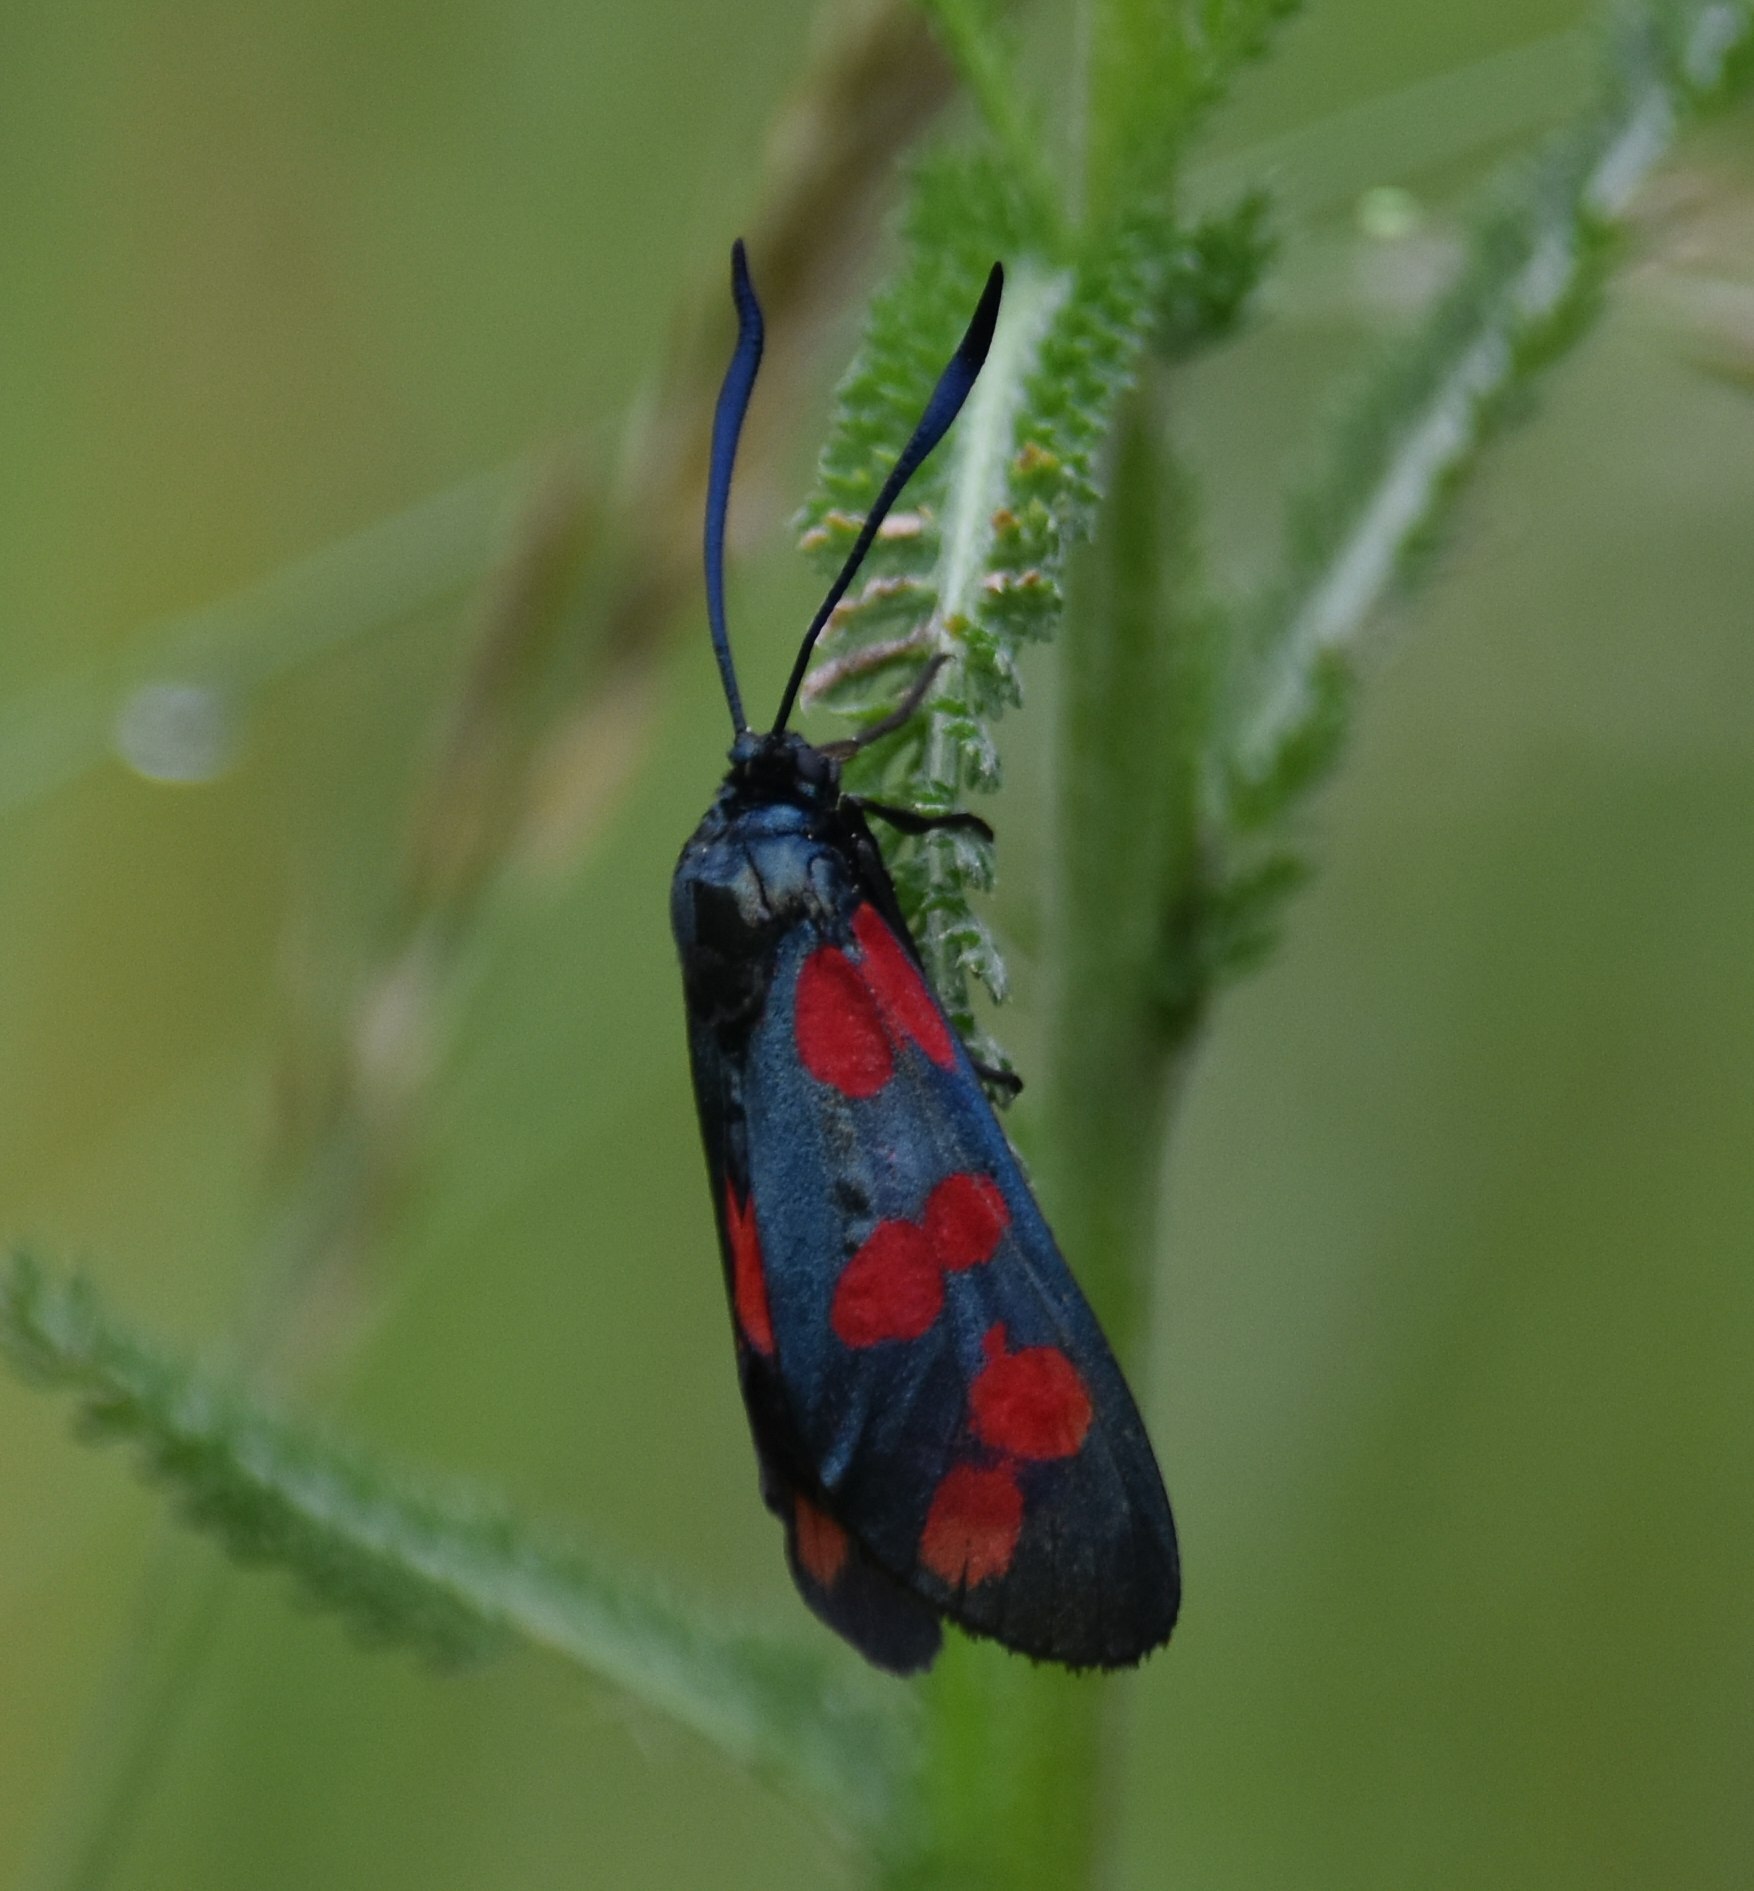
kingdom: Animalia
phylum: Arthropoda
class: Insecta
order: Lepidoptera
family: Zygaenidae
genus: Zygaena
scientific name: Zygaena filipendulae
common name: Six-spot burnet
